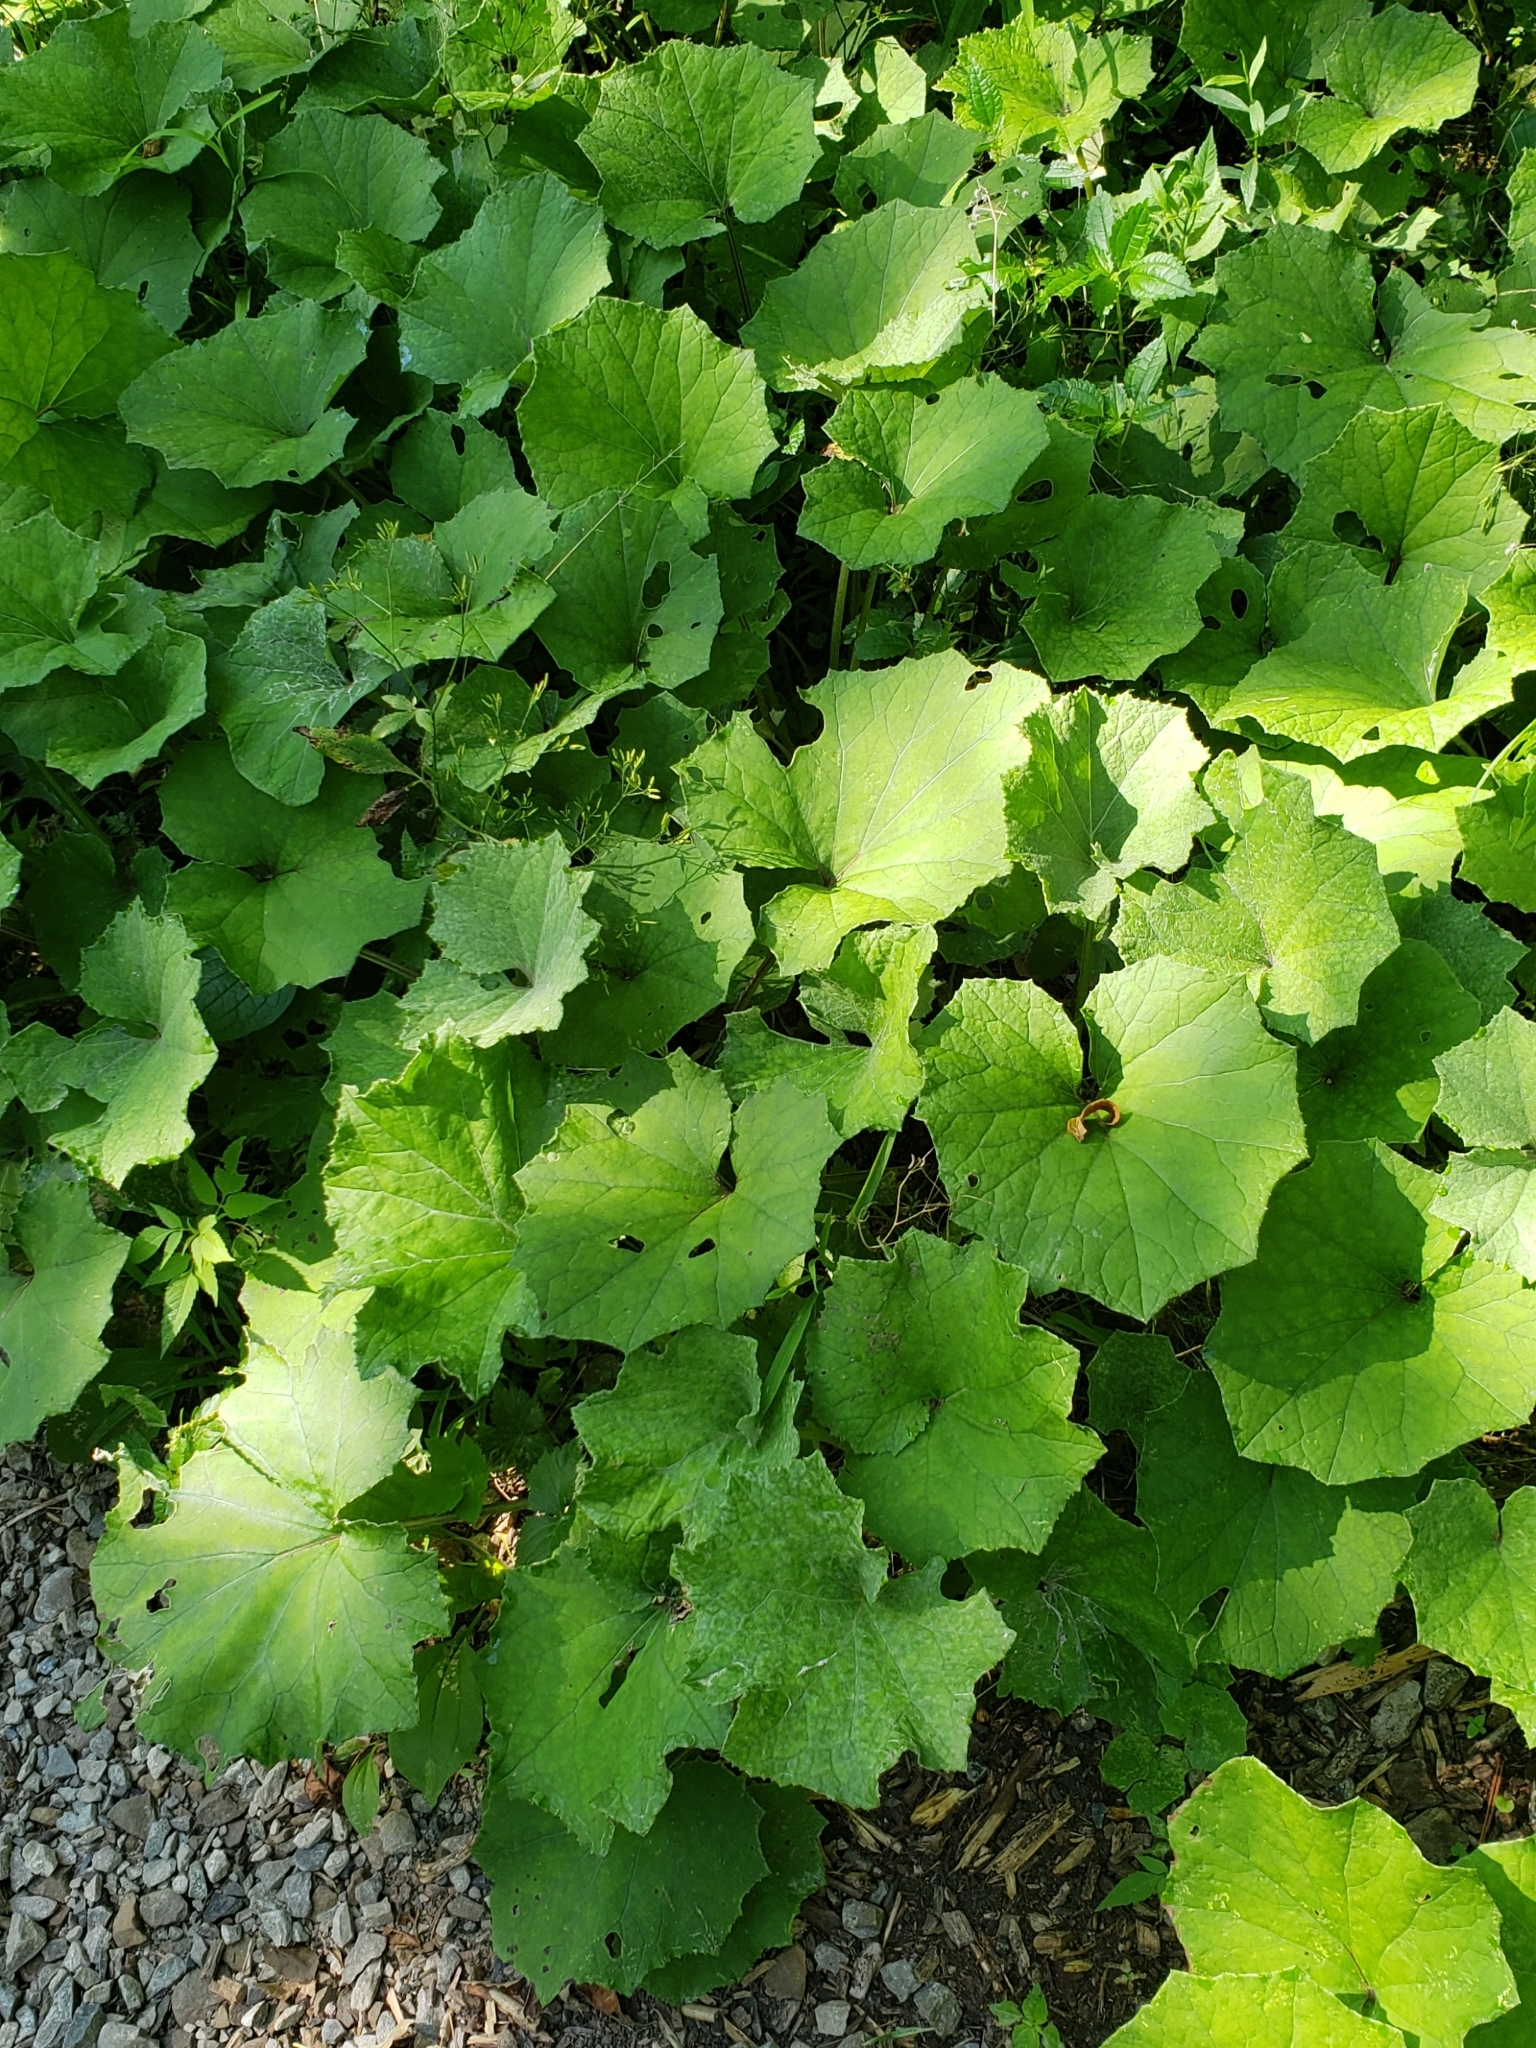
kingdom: Plantae
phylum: Tracheophyta
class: Magnoliopsida
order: Asterales
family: Asteraceae
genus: Tussilago
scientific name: Tussilago farfara
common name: Coltsfoot
